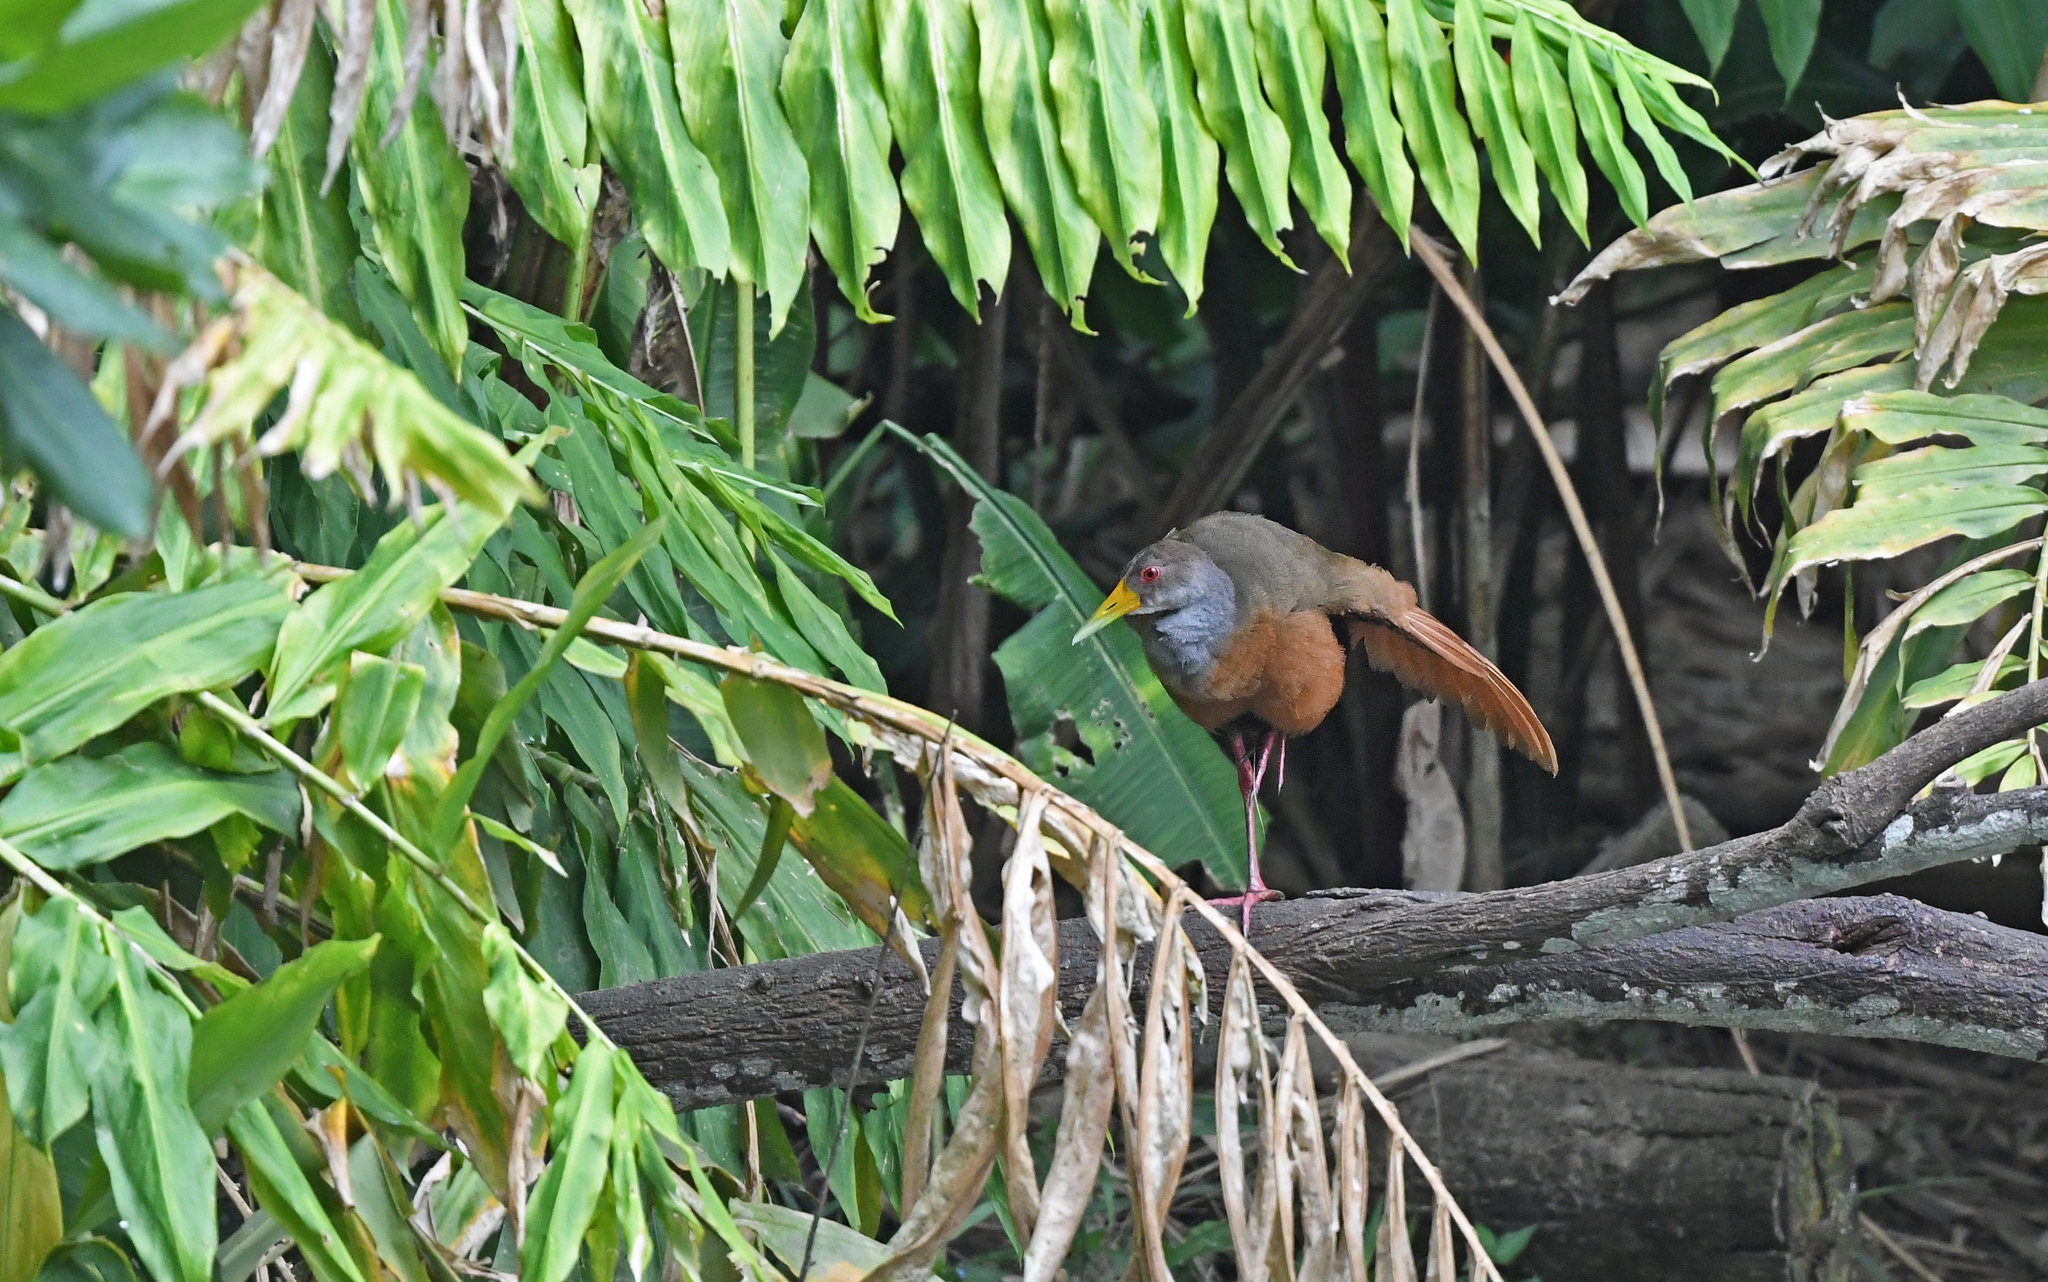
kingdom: Animalia
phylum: Chordata
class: Aves
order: Gruiformes
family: Rallidae
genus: Aramides
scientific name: Aramides cajanea
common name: Gray-necked wood-rail
